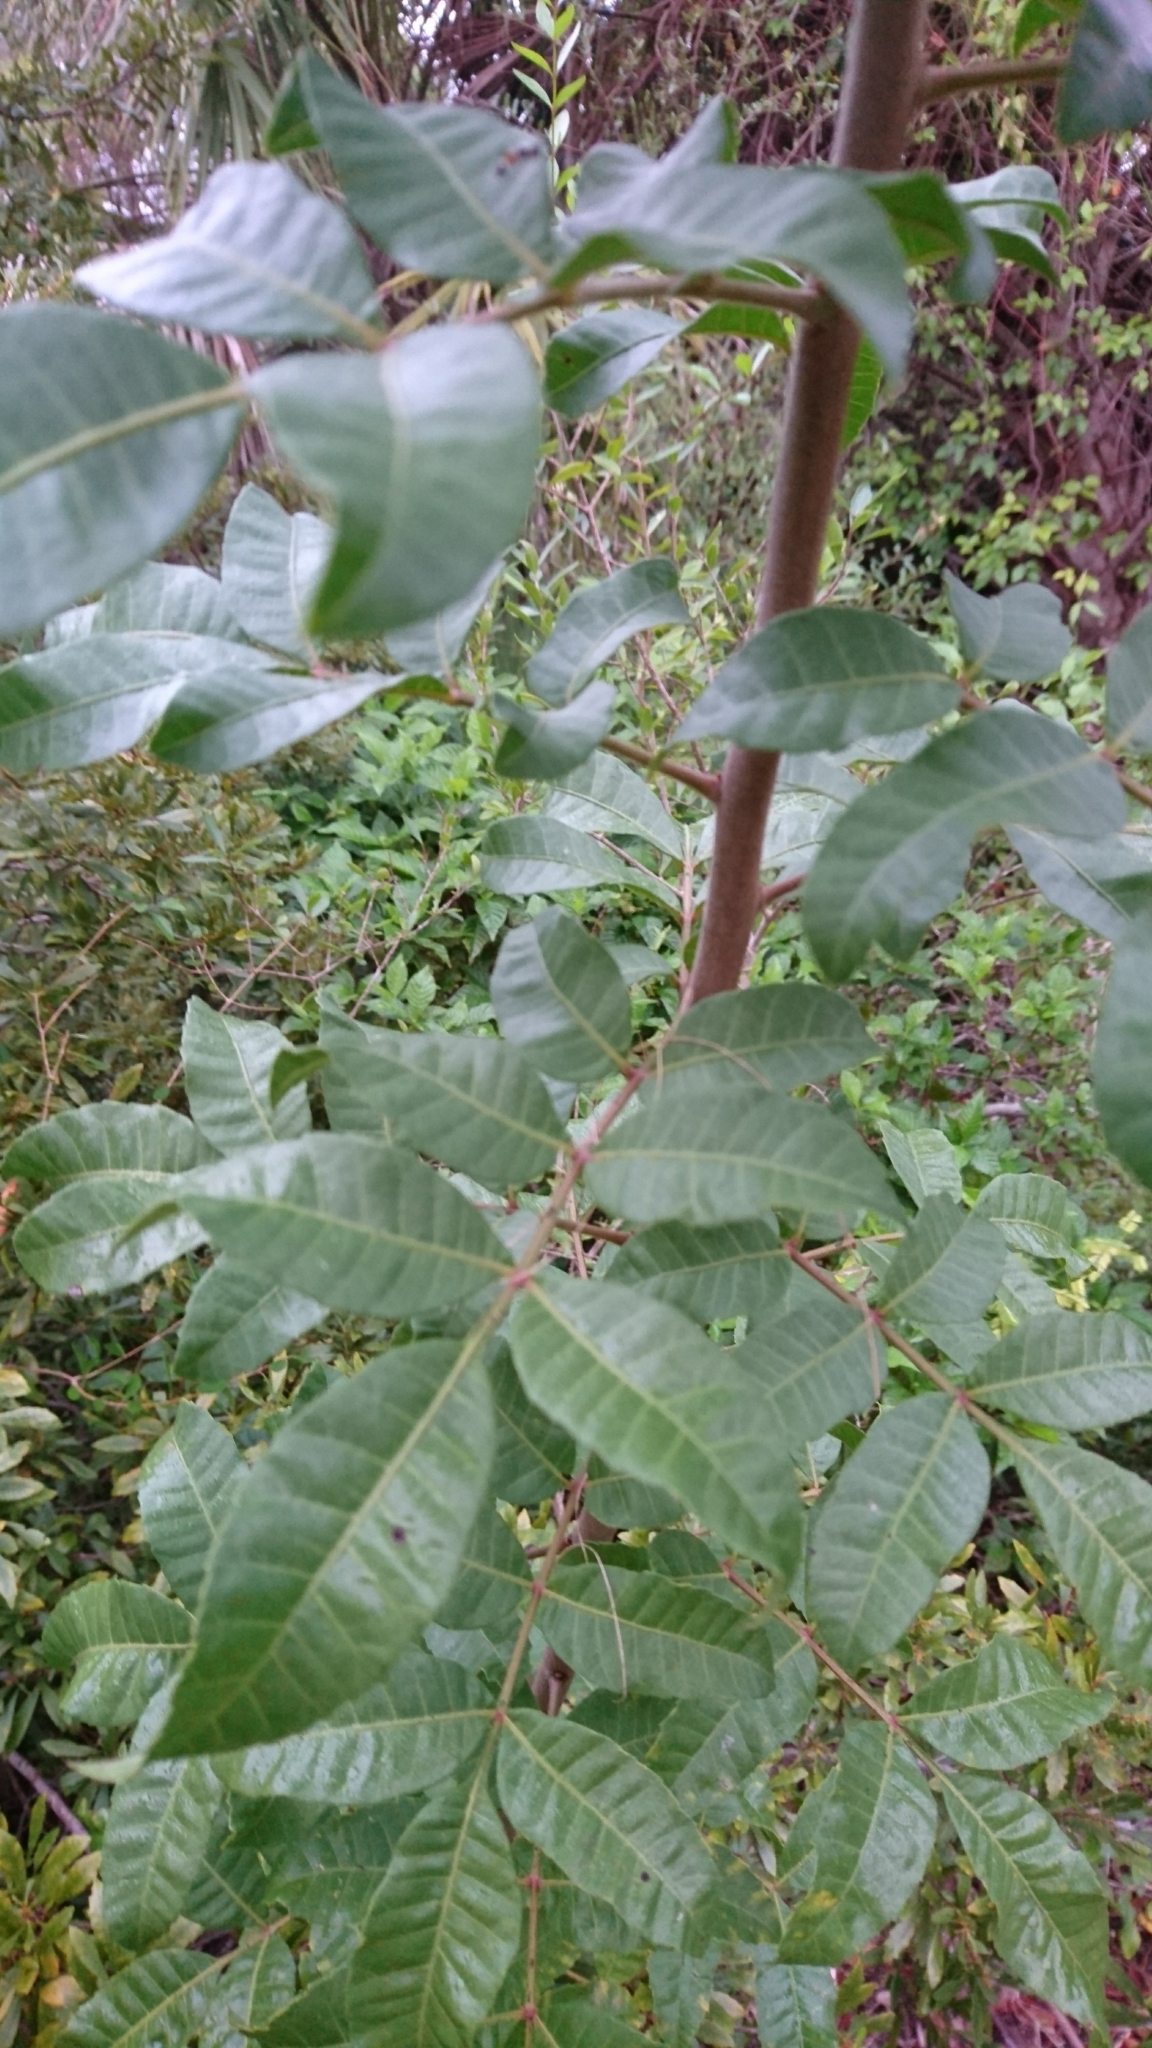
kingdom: Plantae
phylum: Tracheophyta
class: Magnoliopsida
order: Sapindales
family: Anacardiaceae
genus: Schinus
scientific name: Schinus terebinthifolia
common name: Brazilian peppertree
